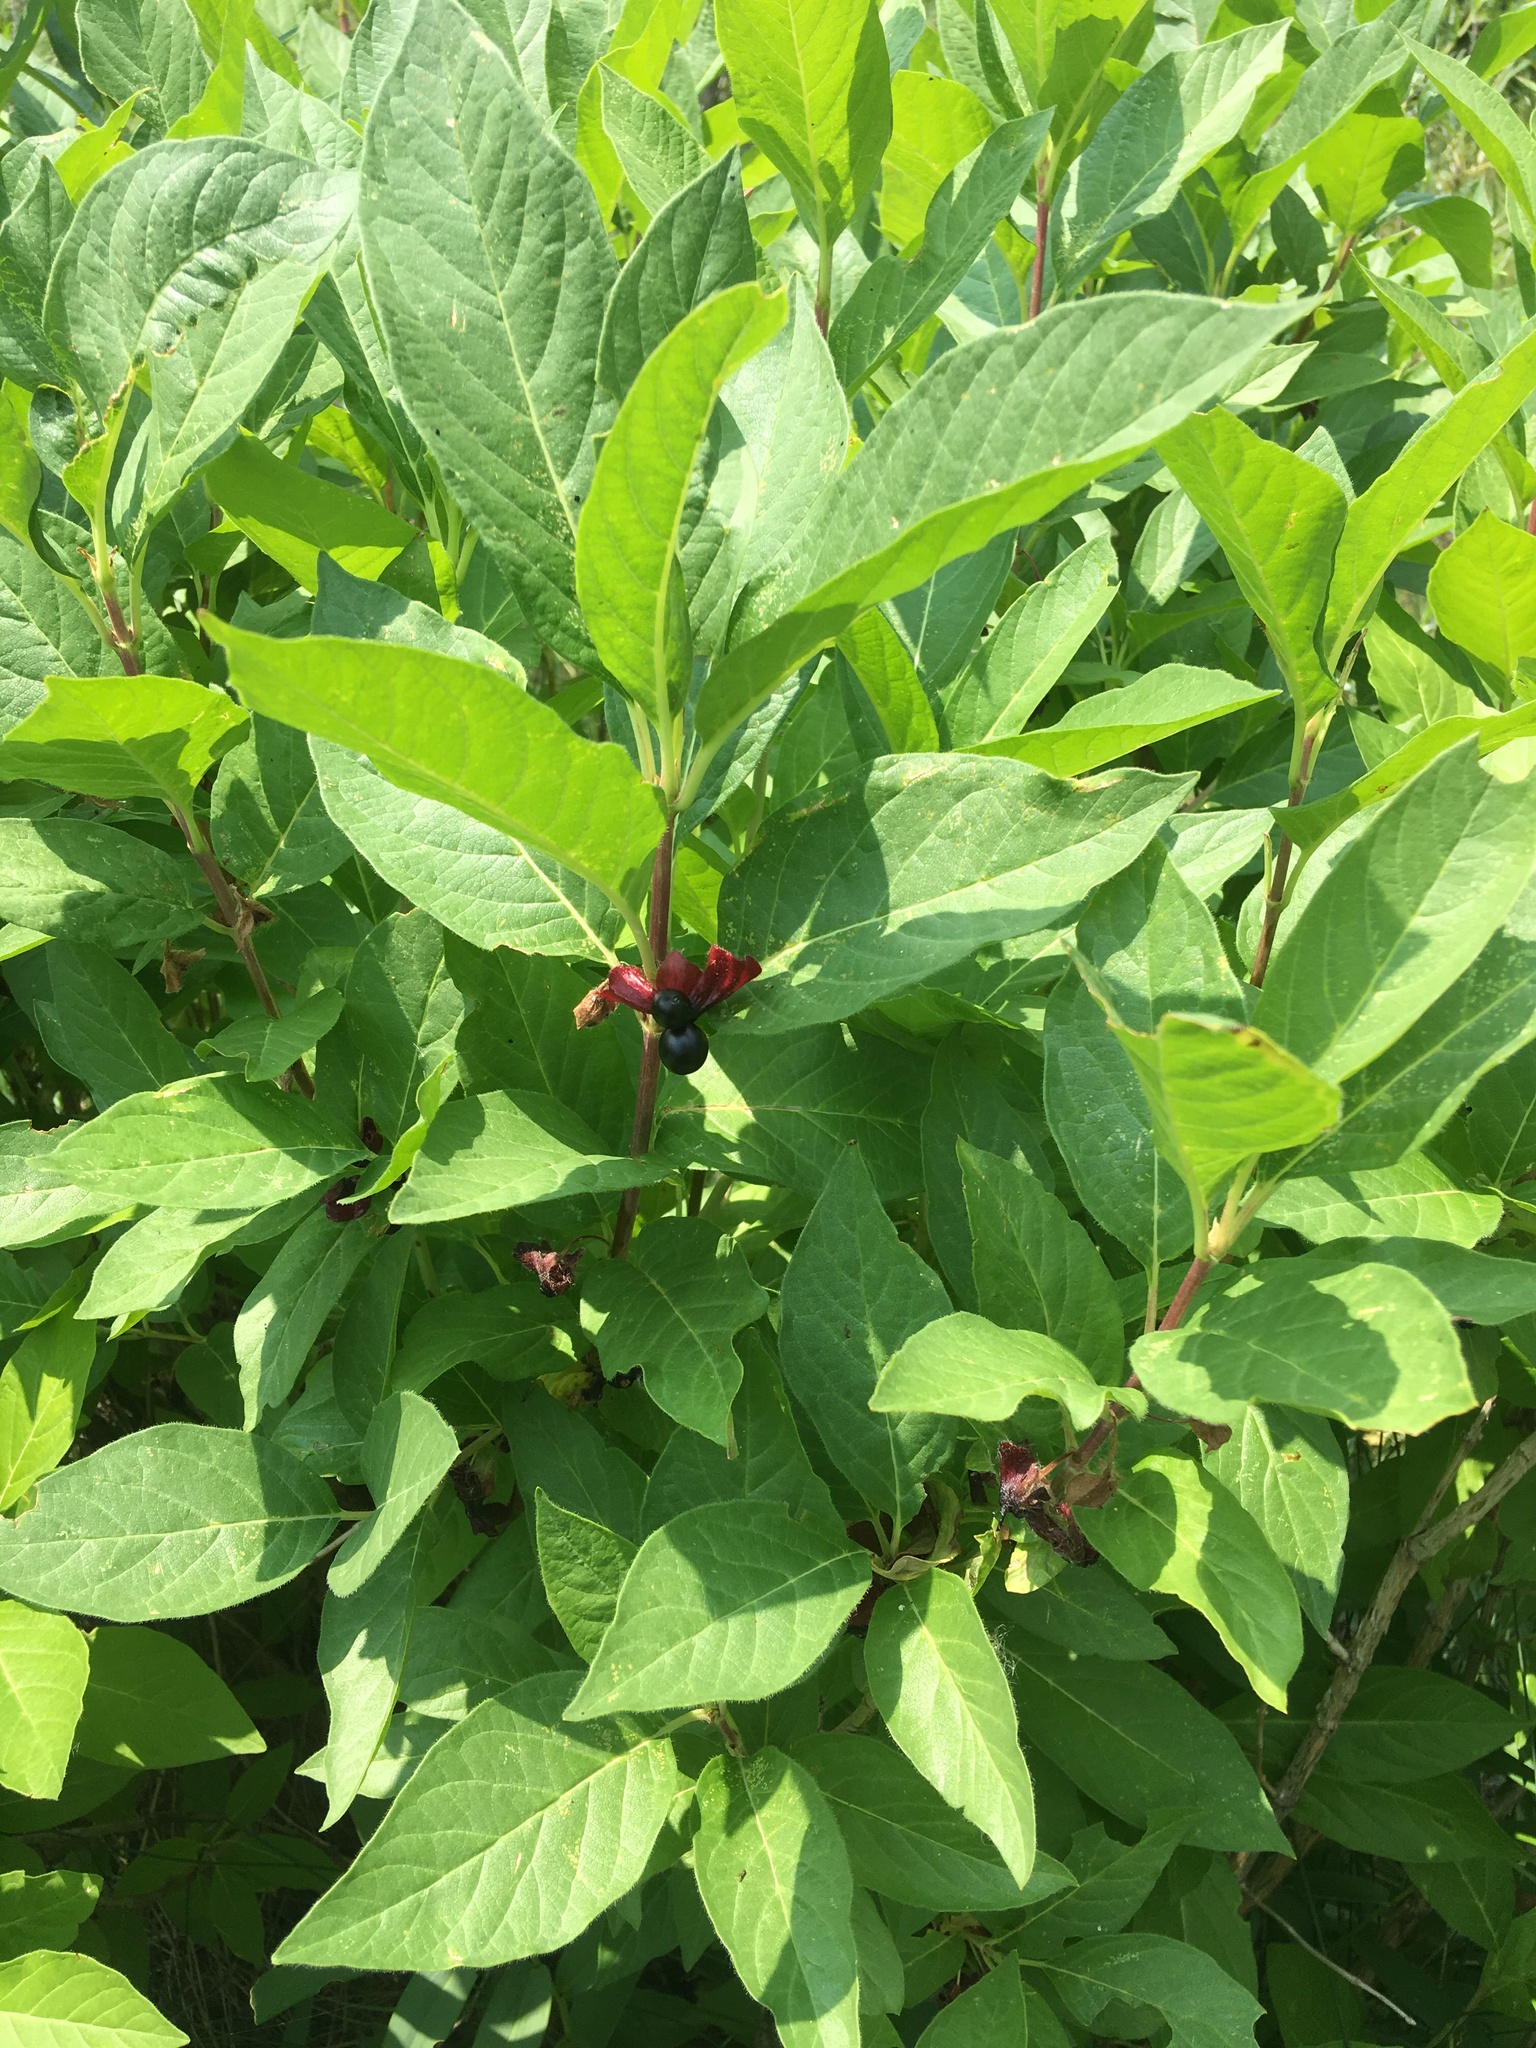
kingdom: Plantae
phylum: Tracheophyta
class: Magnoliopsida
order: Dipsacales
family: Caprifoliaceae
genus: Lonicera
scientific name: Lonicera involucrata
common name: Californian honeysuckle
